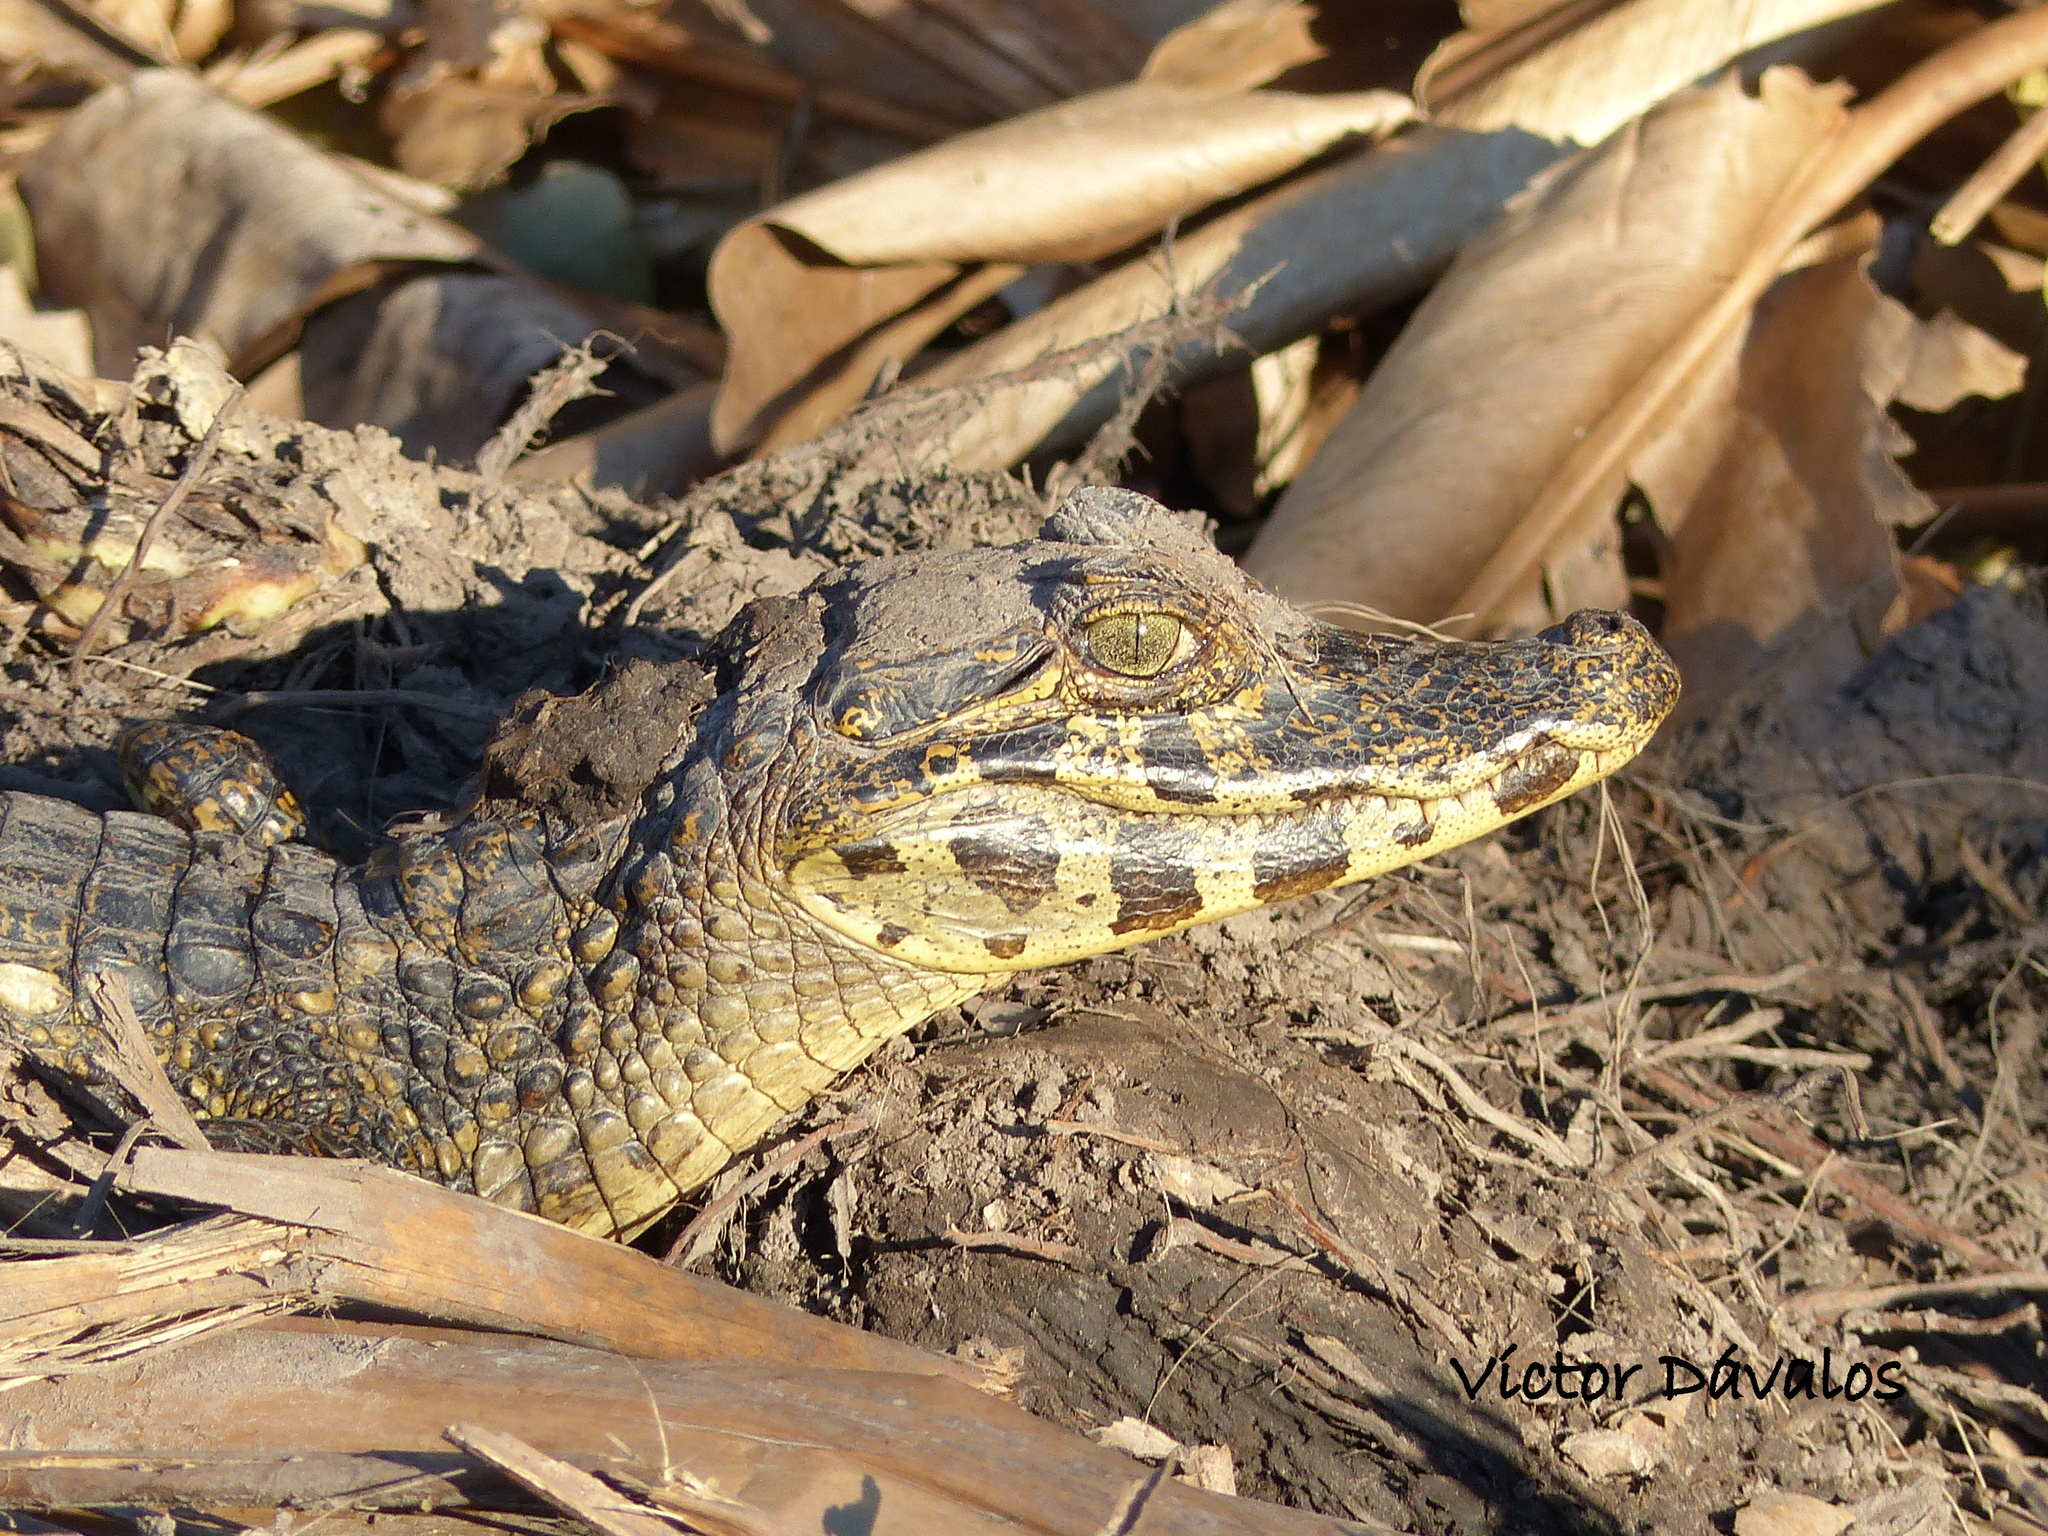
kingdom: Animalia
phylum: Chordata
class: Crocodylia
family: Alligatoridae
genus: Caiman
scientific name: Caiman yacare
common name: Yacare caiman
